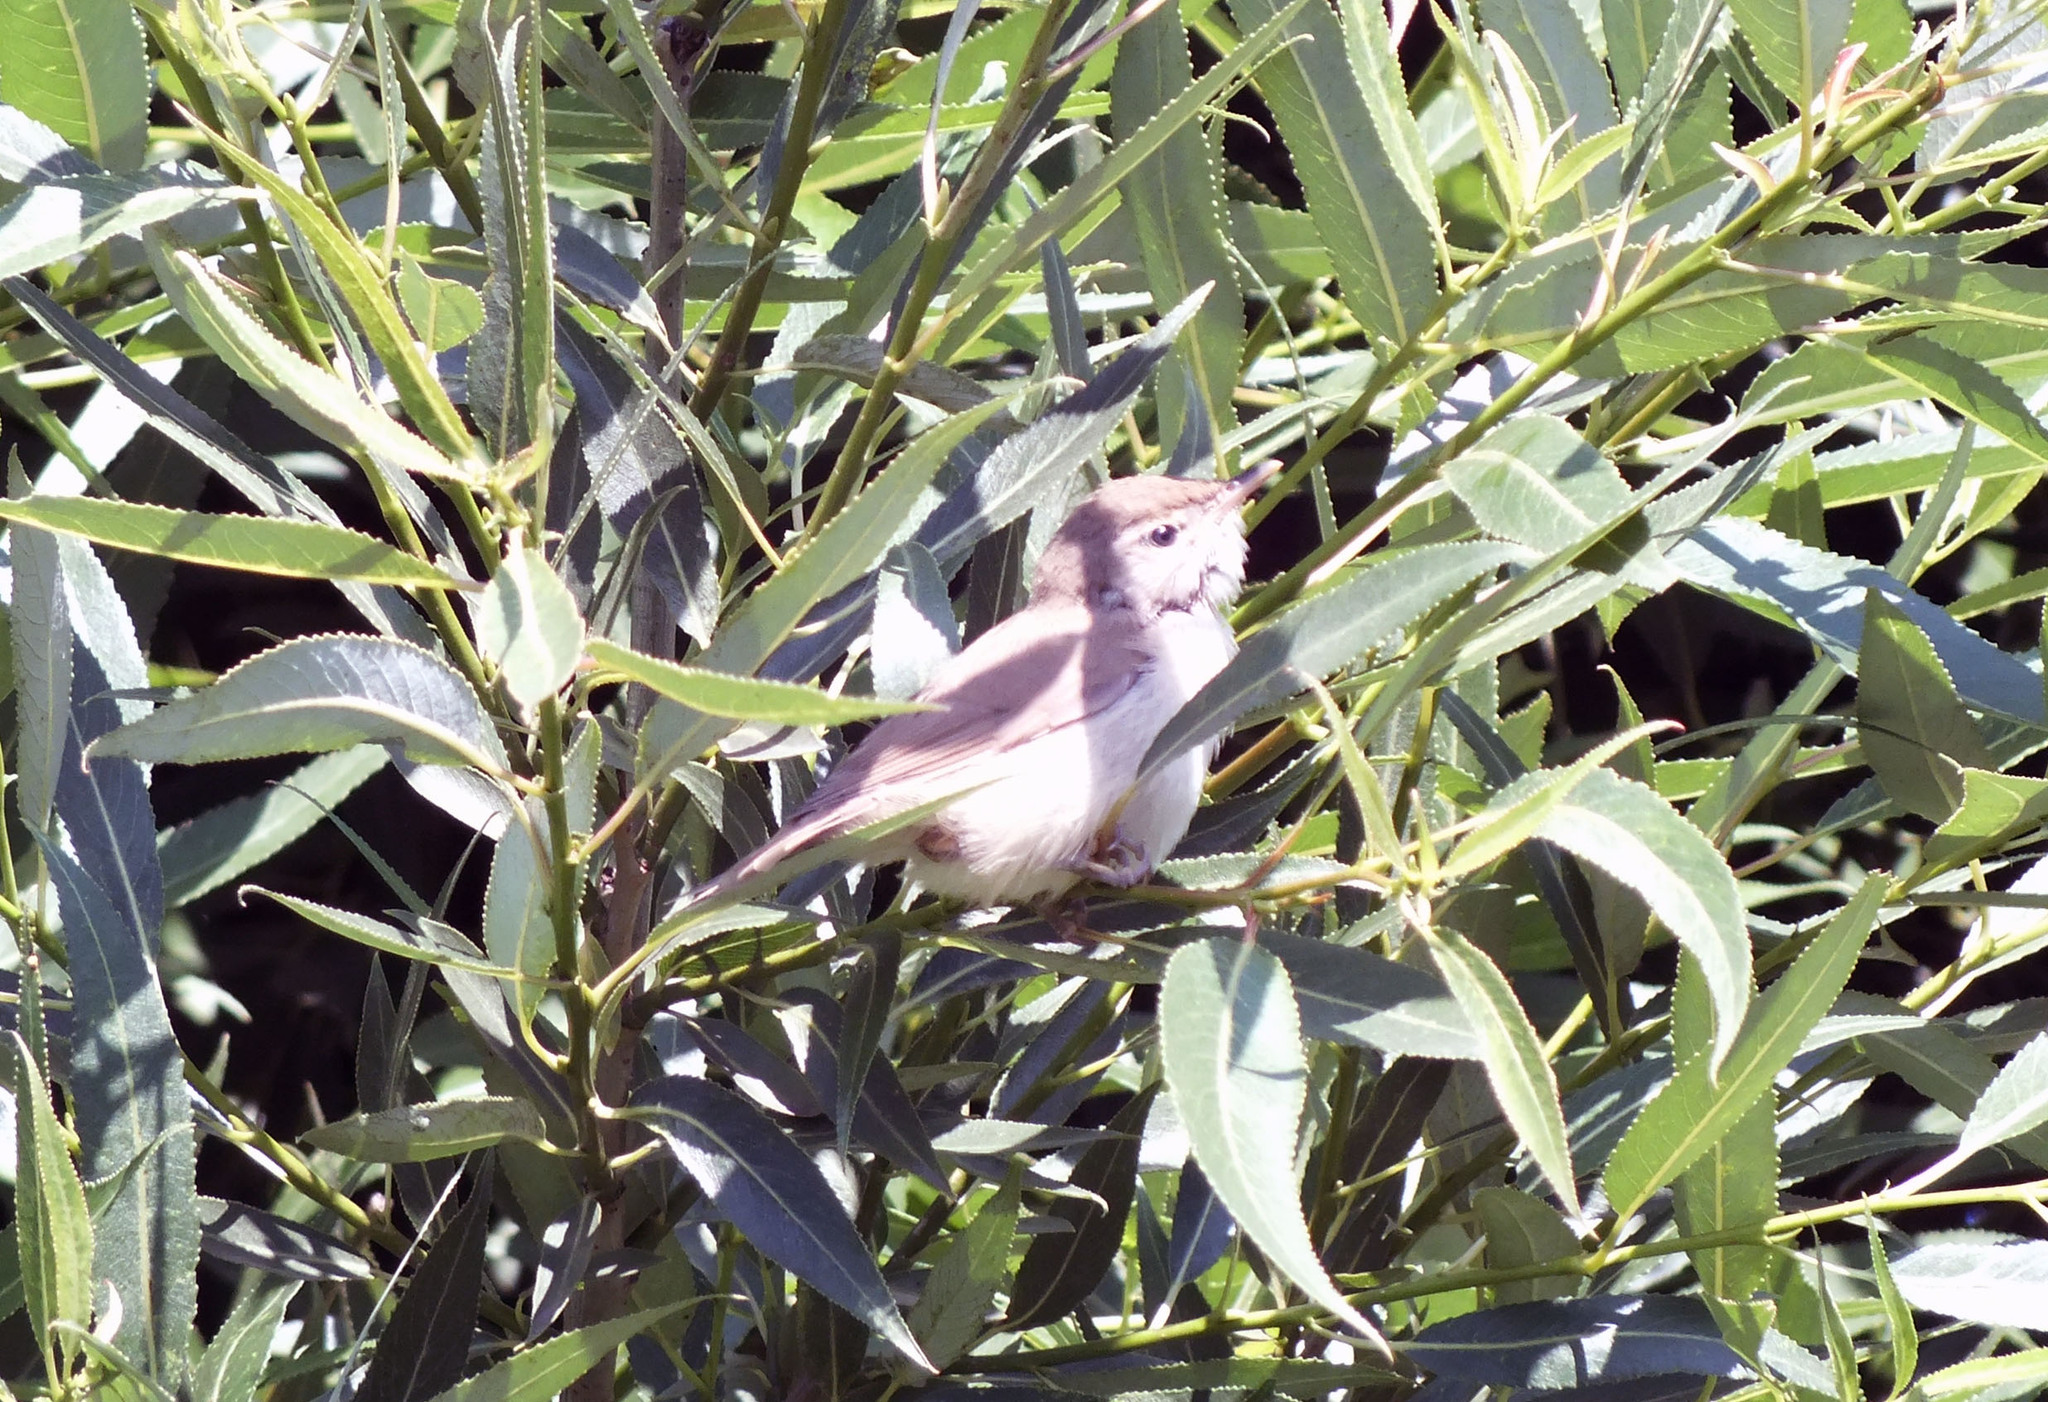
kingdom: Animalia
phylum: Chordata
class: Aves
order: Passeriformes
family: Acrocephalidae
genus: Acrocephalus
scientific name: Acrocephalus dumetorum
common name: Blyth's reed warbler
